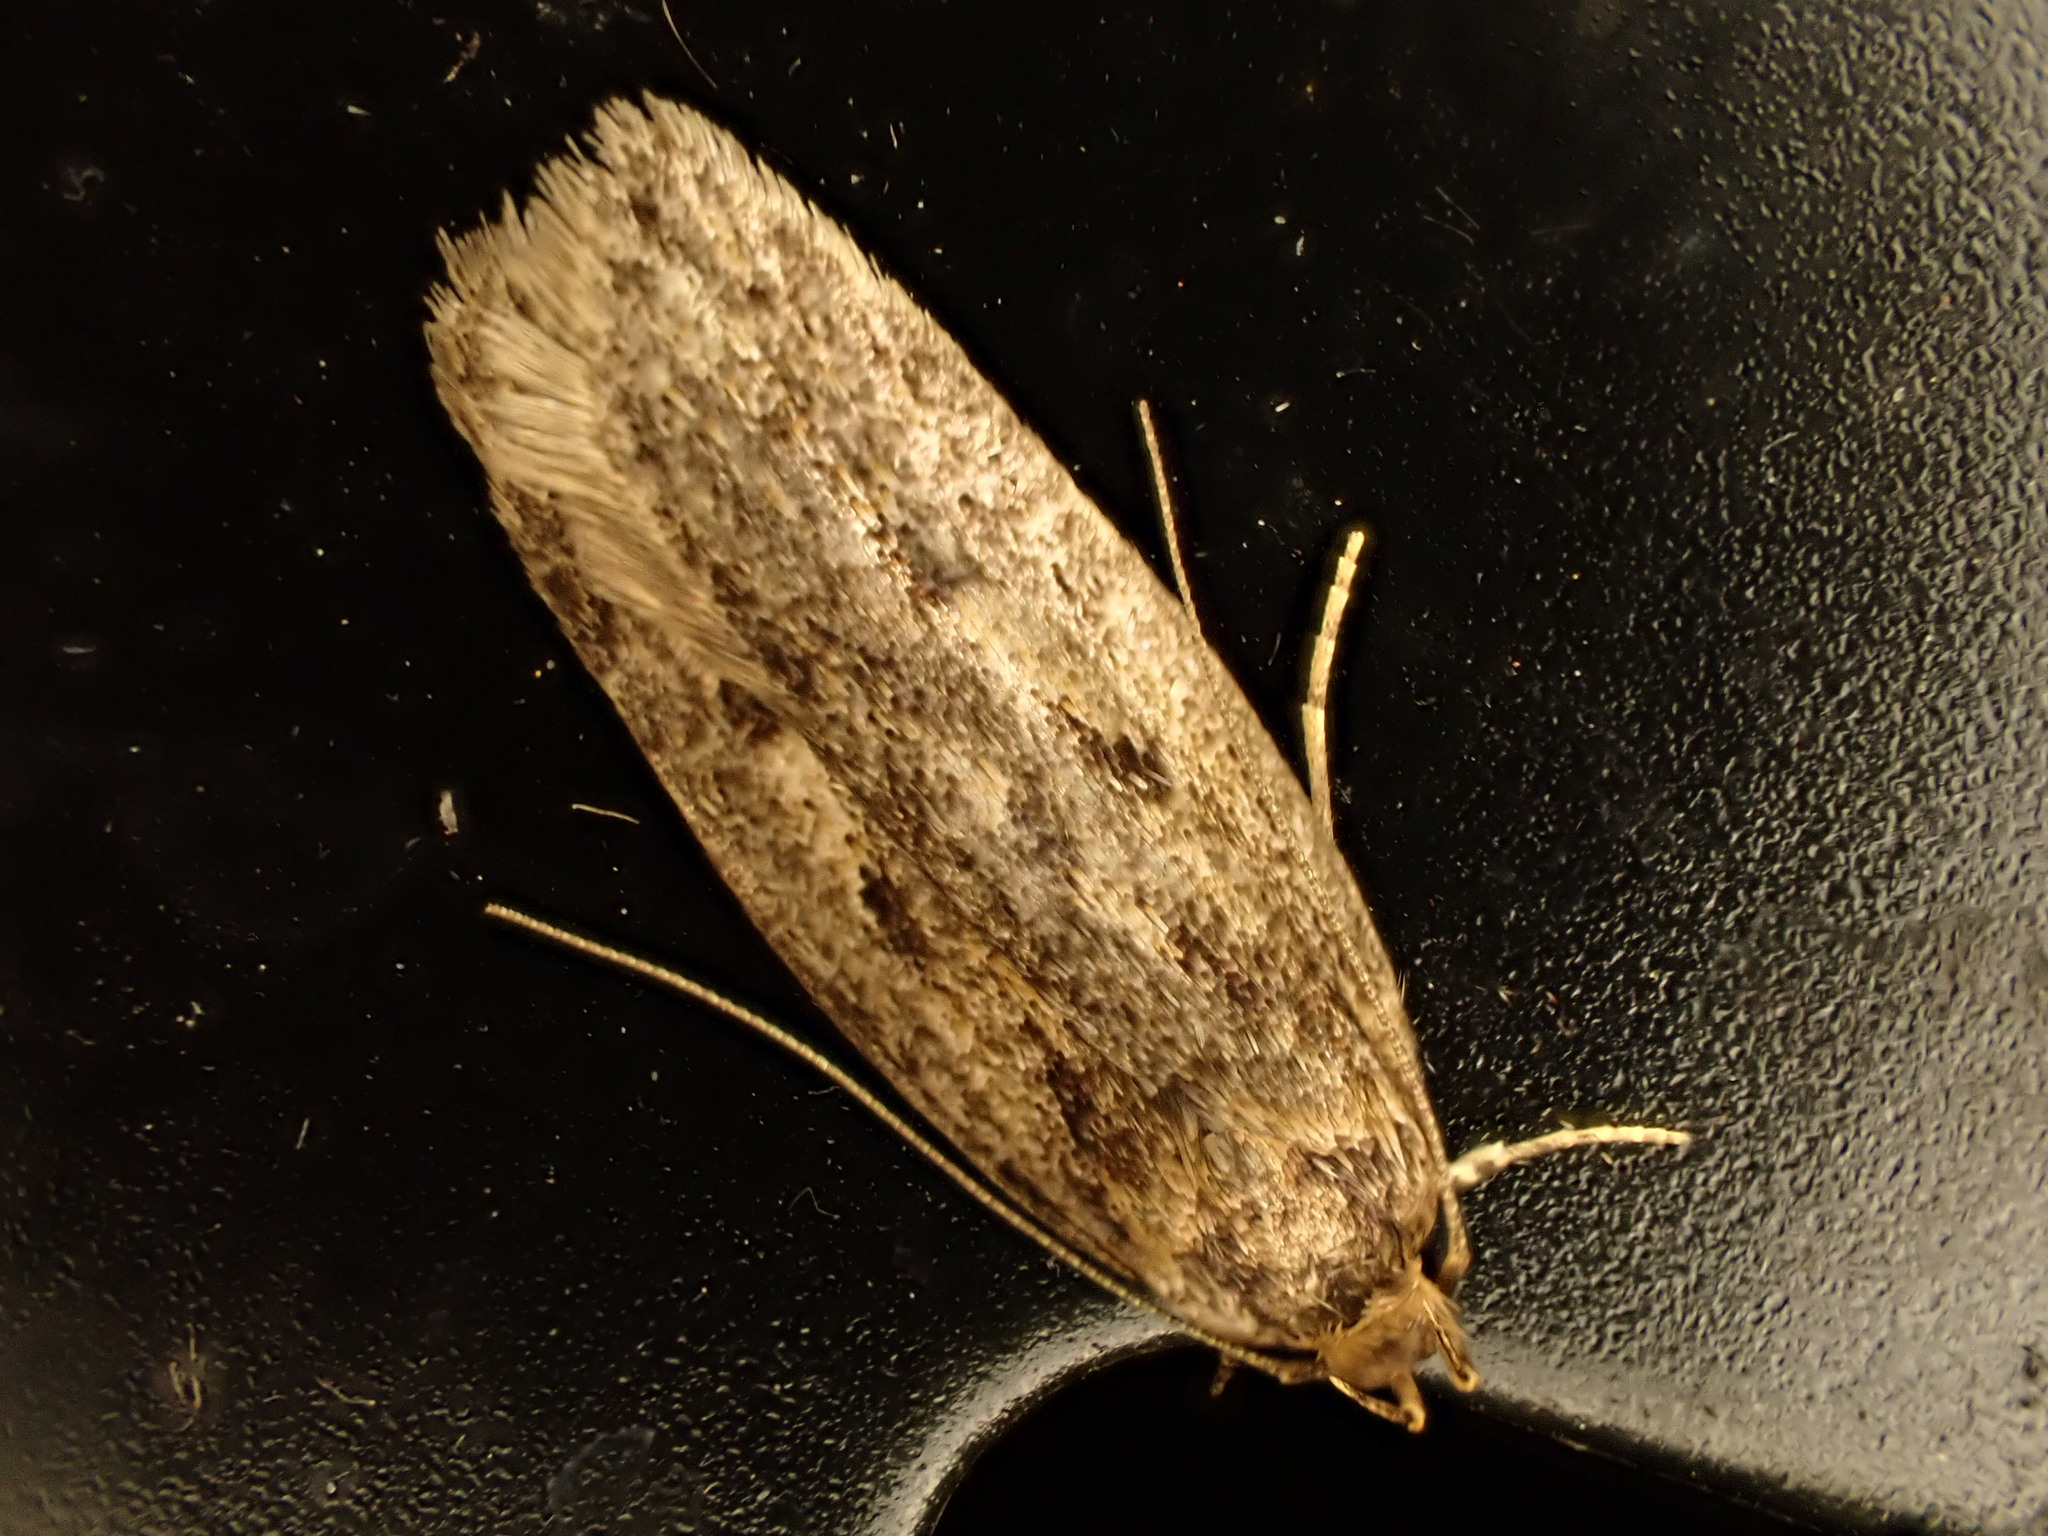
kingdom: Animalia
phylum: Arthropoda
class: Insecta
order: Lepidoptera
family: Oecophoridae
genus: Hofmannophila
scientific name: Hofmannophila pseudospretella
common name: Brown house moth
